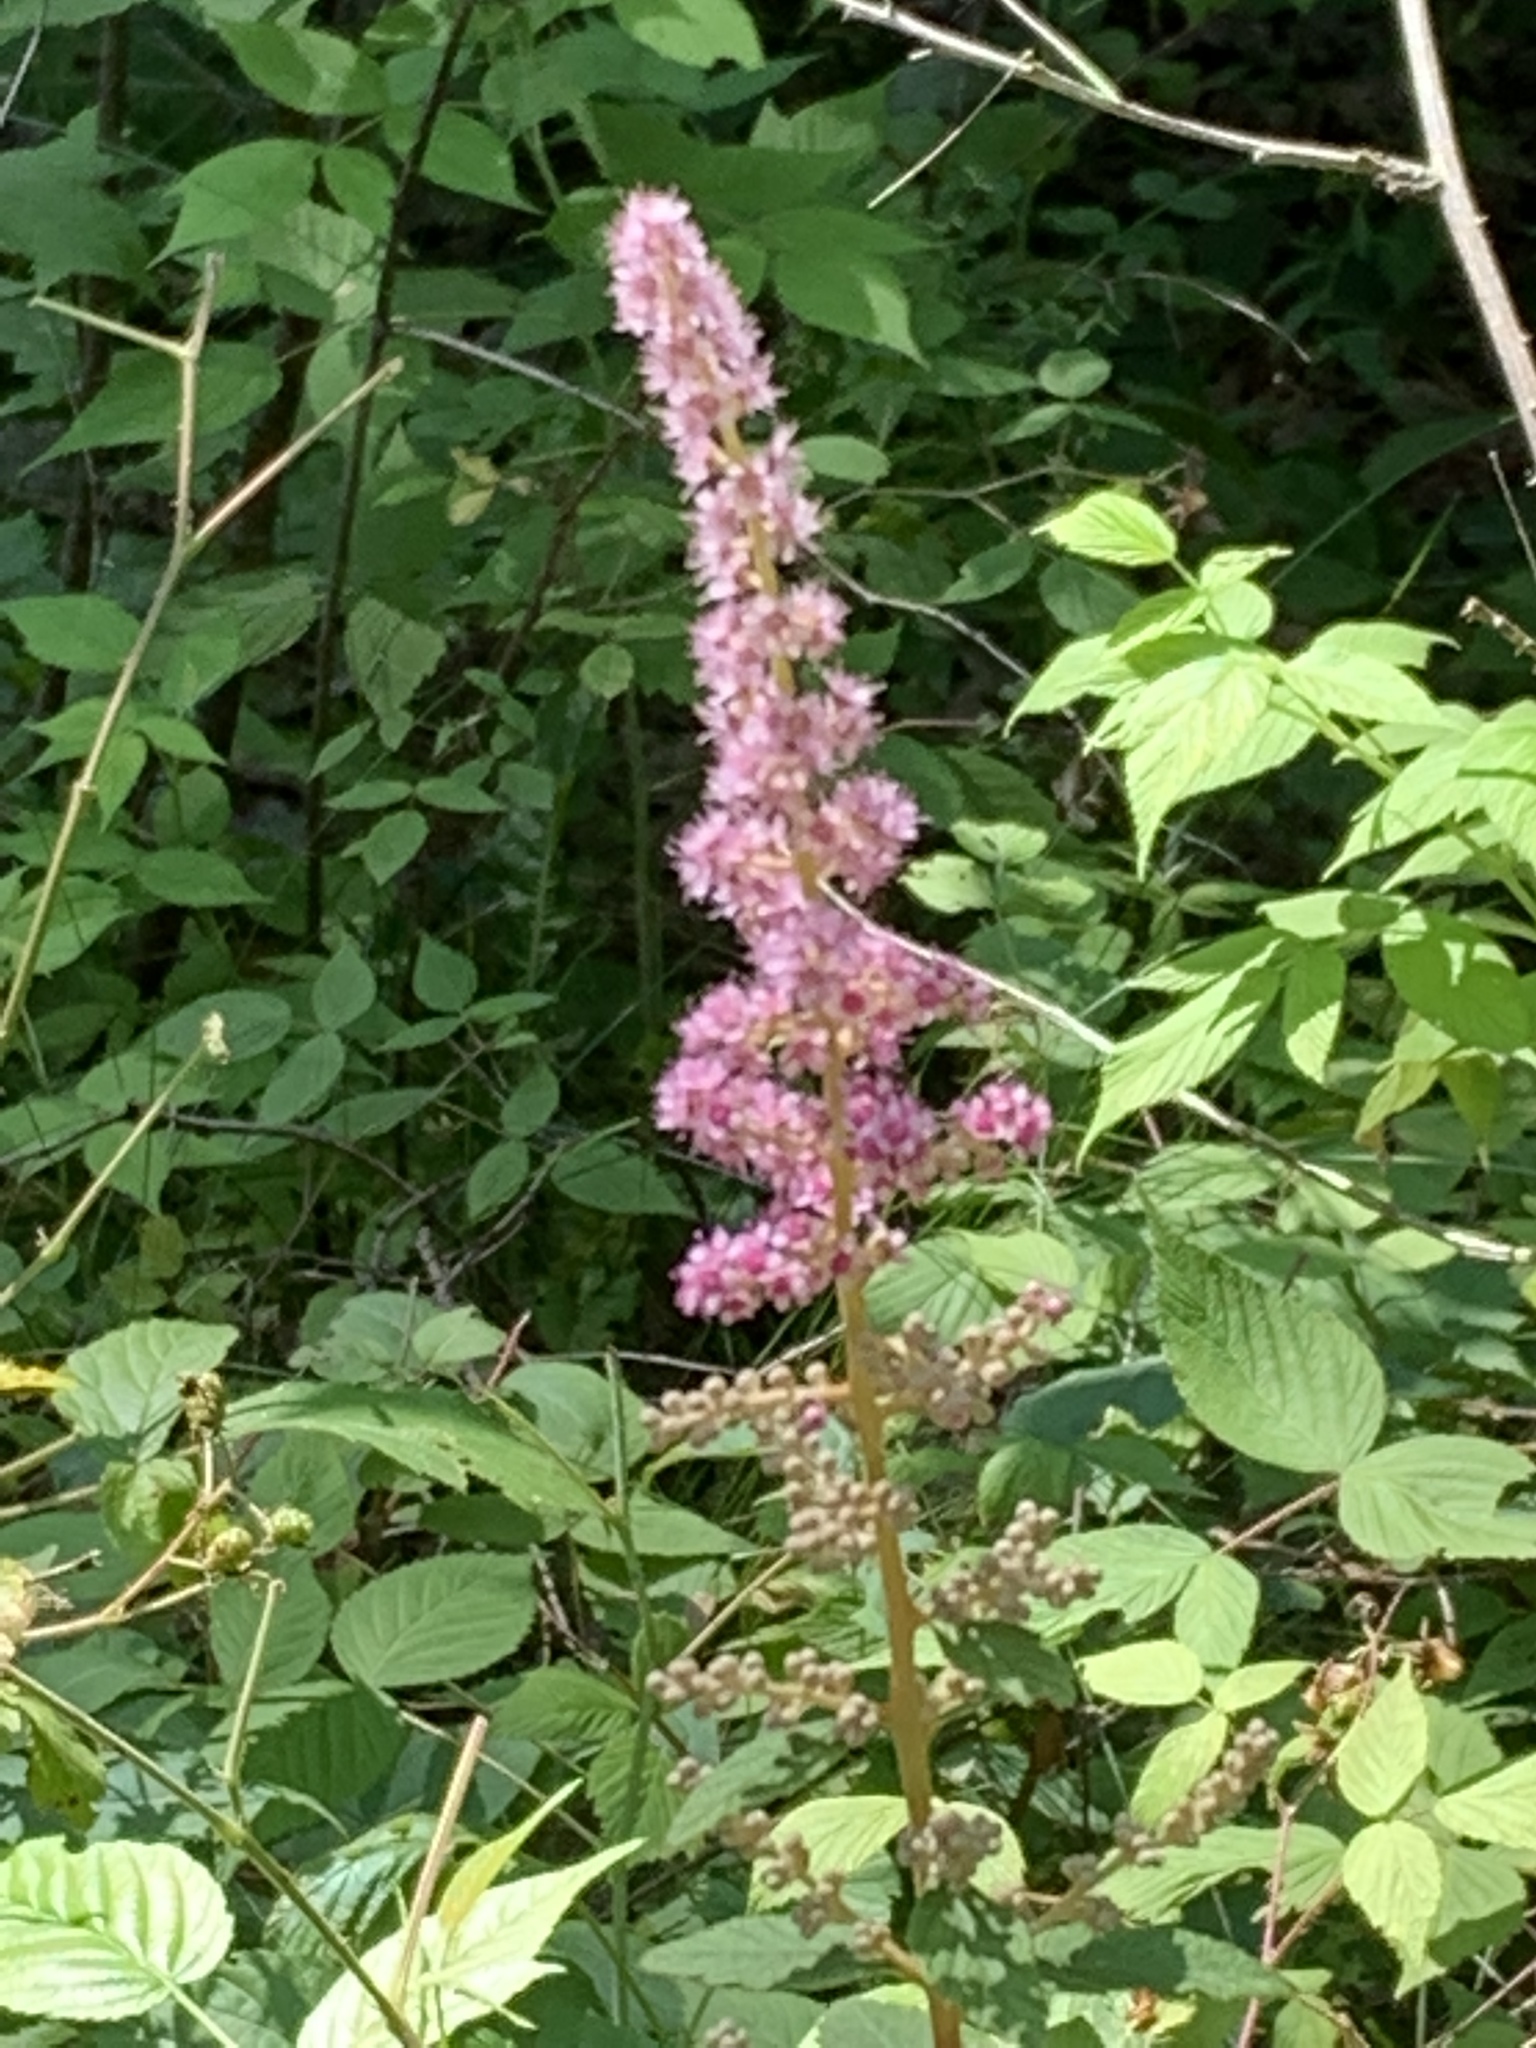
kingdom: Plantae
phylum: Tracheophyta
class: Magnoliopsida
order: Rosales
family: Rosaceae
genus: Spiraea
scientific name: Spiraea tomentosa
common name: Hardhack
